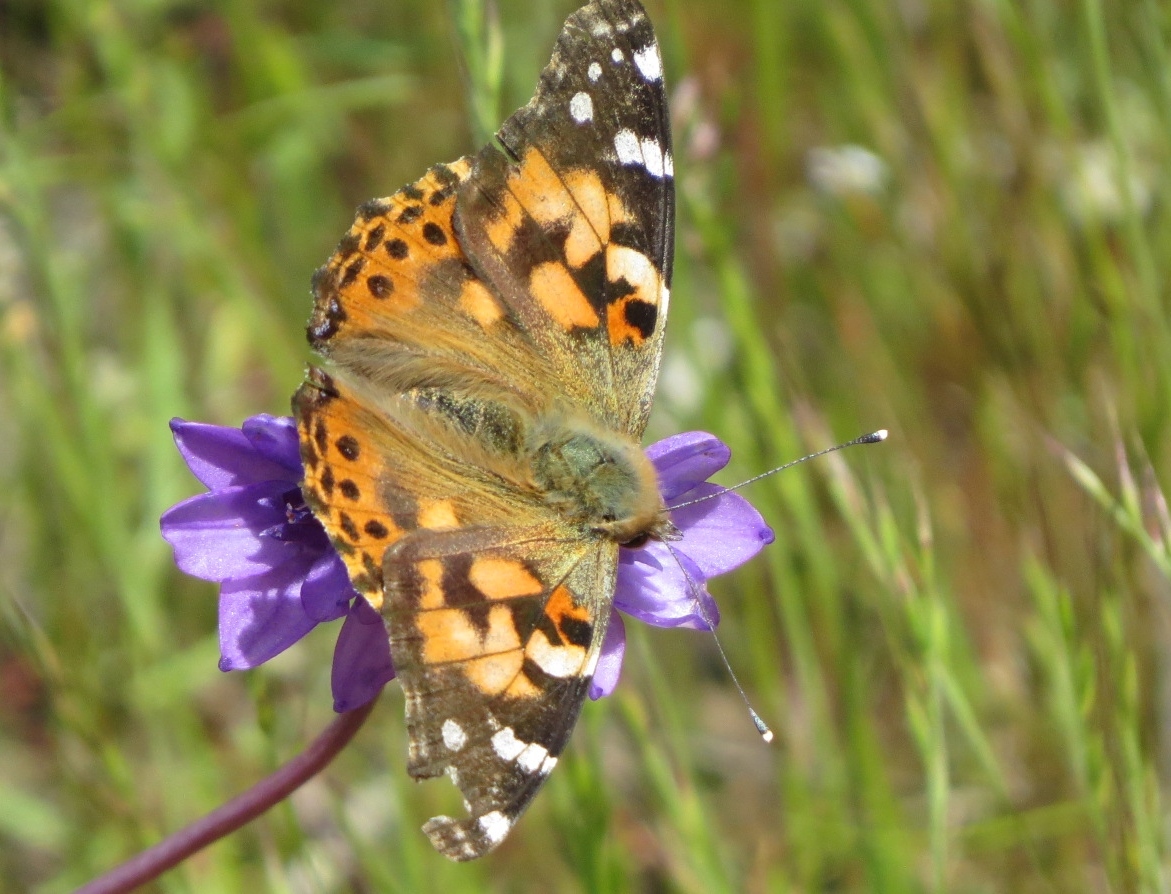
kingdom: Animalia
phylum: Arthropoda
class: Insecta
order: Lepidoptera
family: Nymphalidae
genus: Vanessa
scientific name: Vanessa cardui
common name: Painted lady
